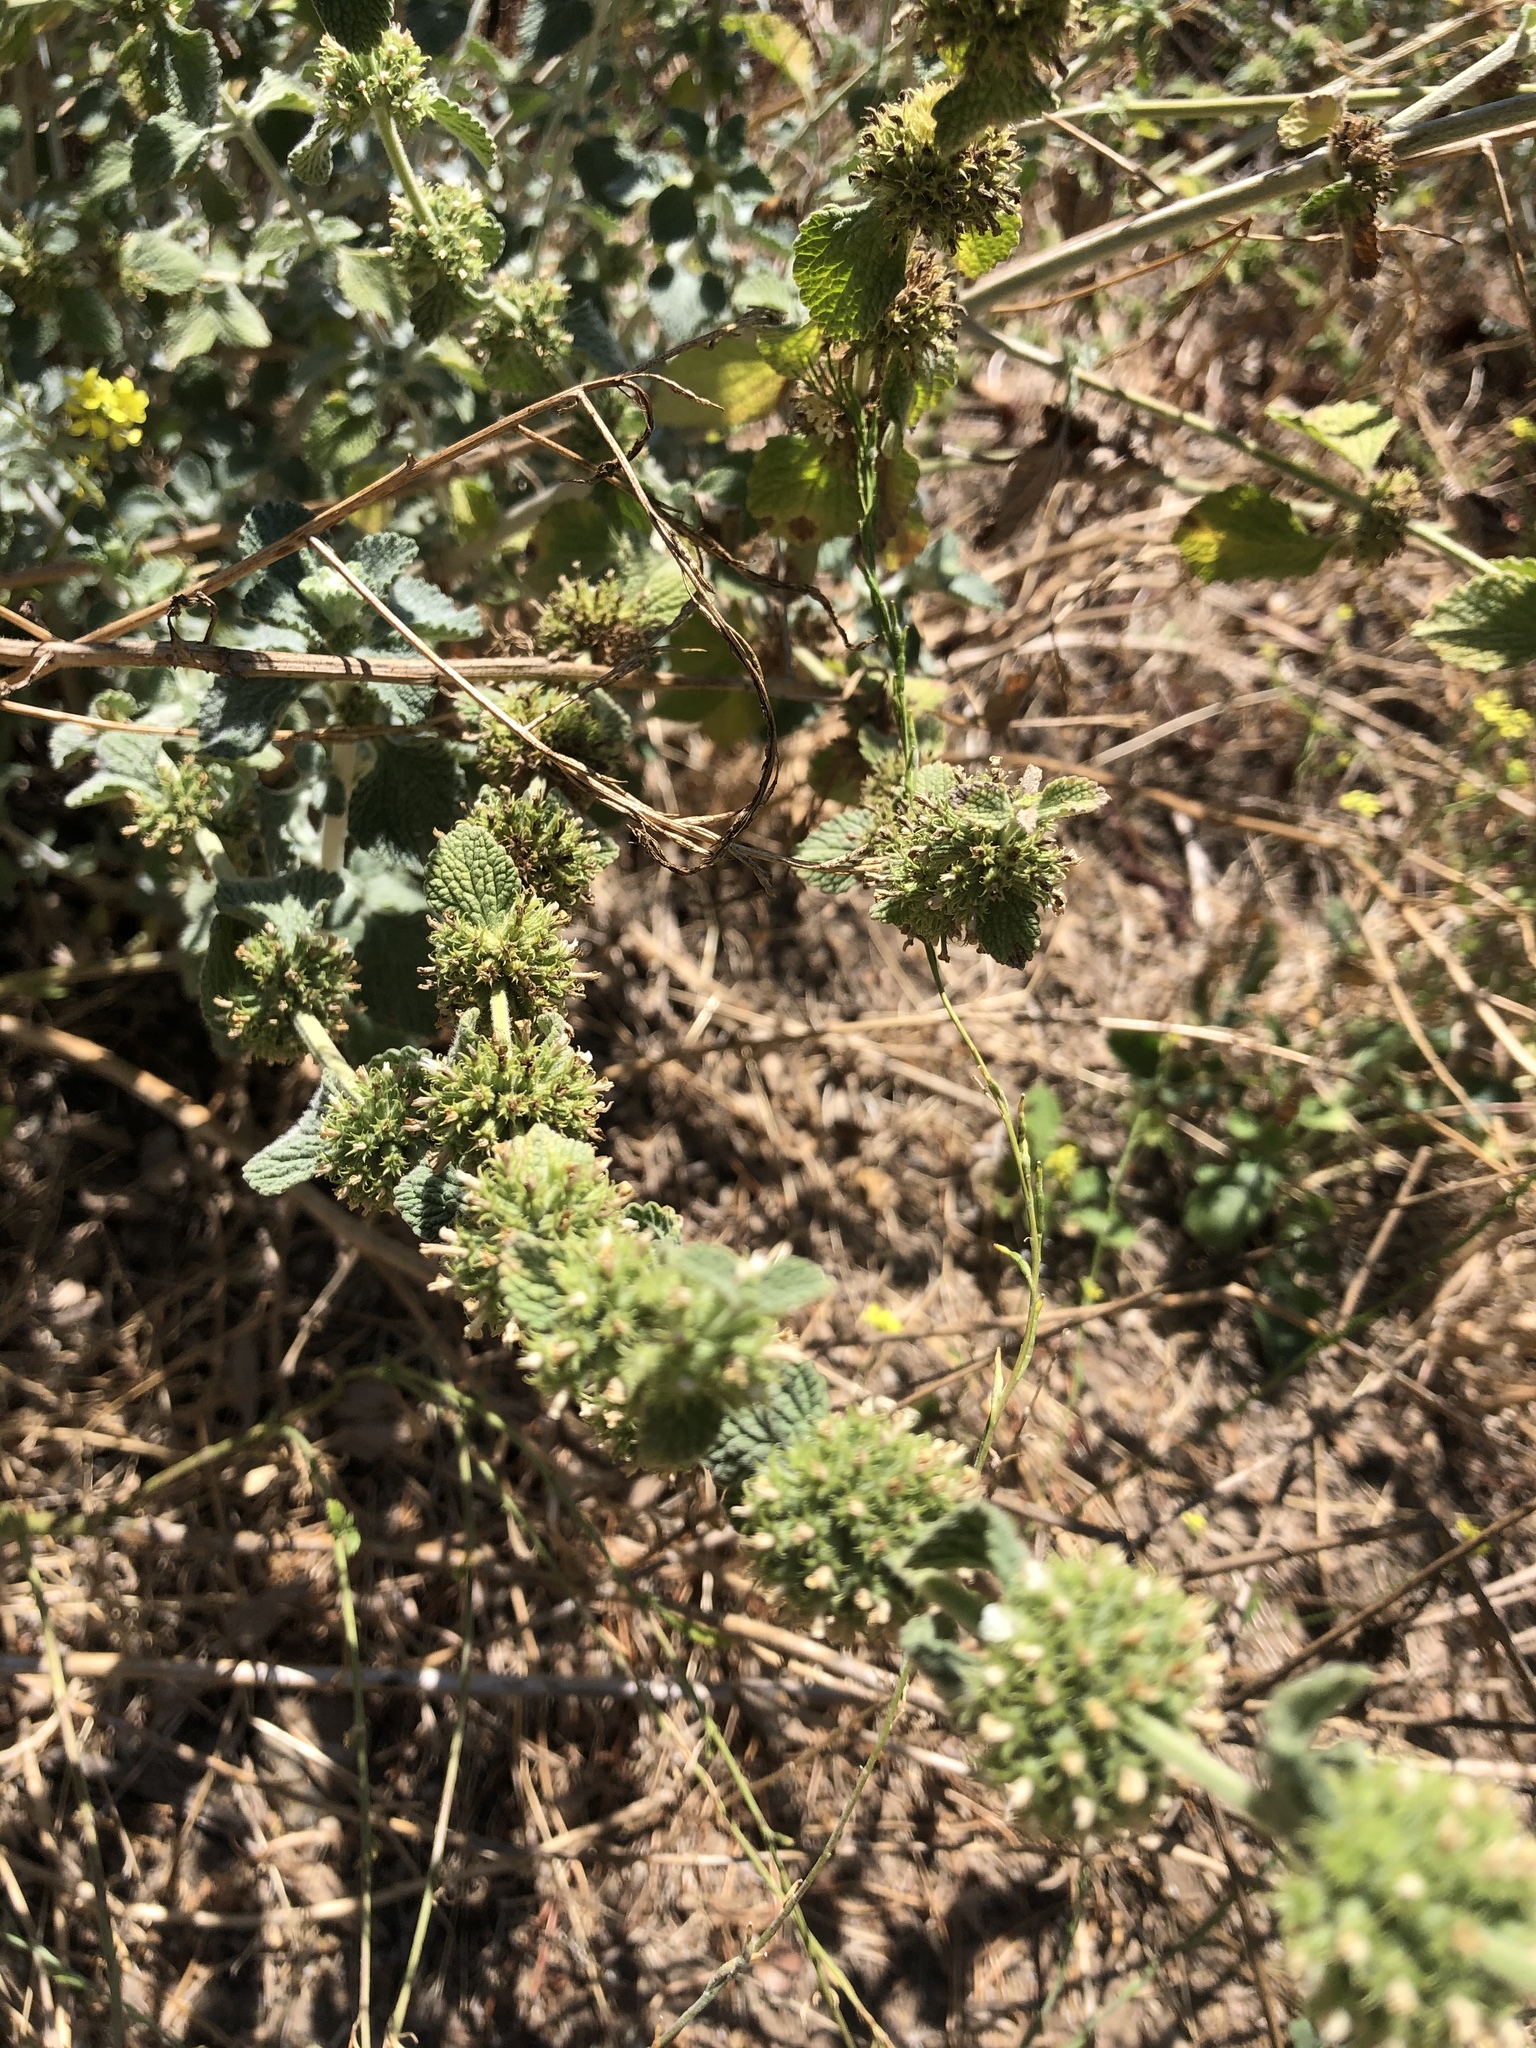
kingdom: Plantae
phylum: Tracheophyta
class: Magnoliopsida
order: Lamiales
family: Lamiaceae
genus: Marrubium
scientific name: Marrubium vulgare
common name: Horehound
